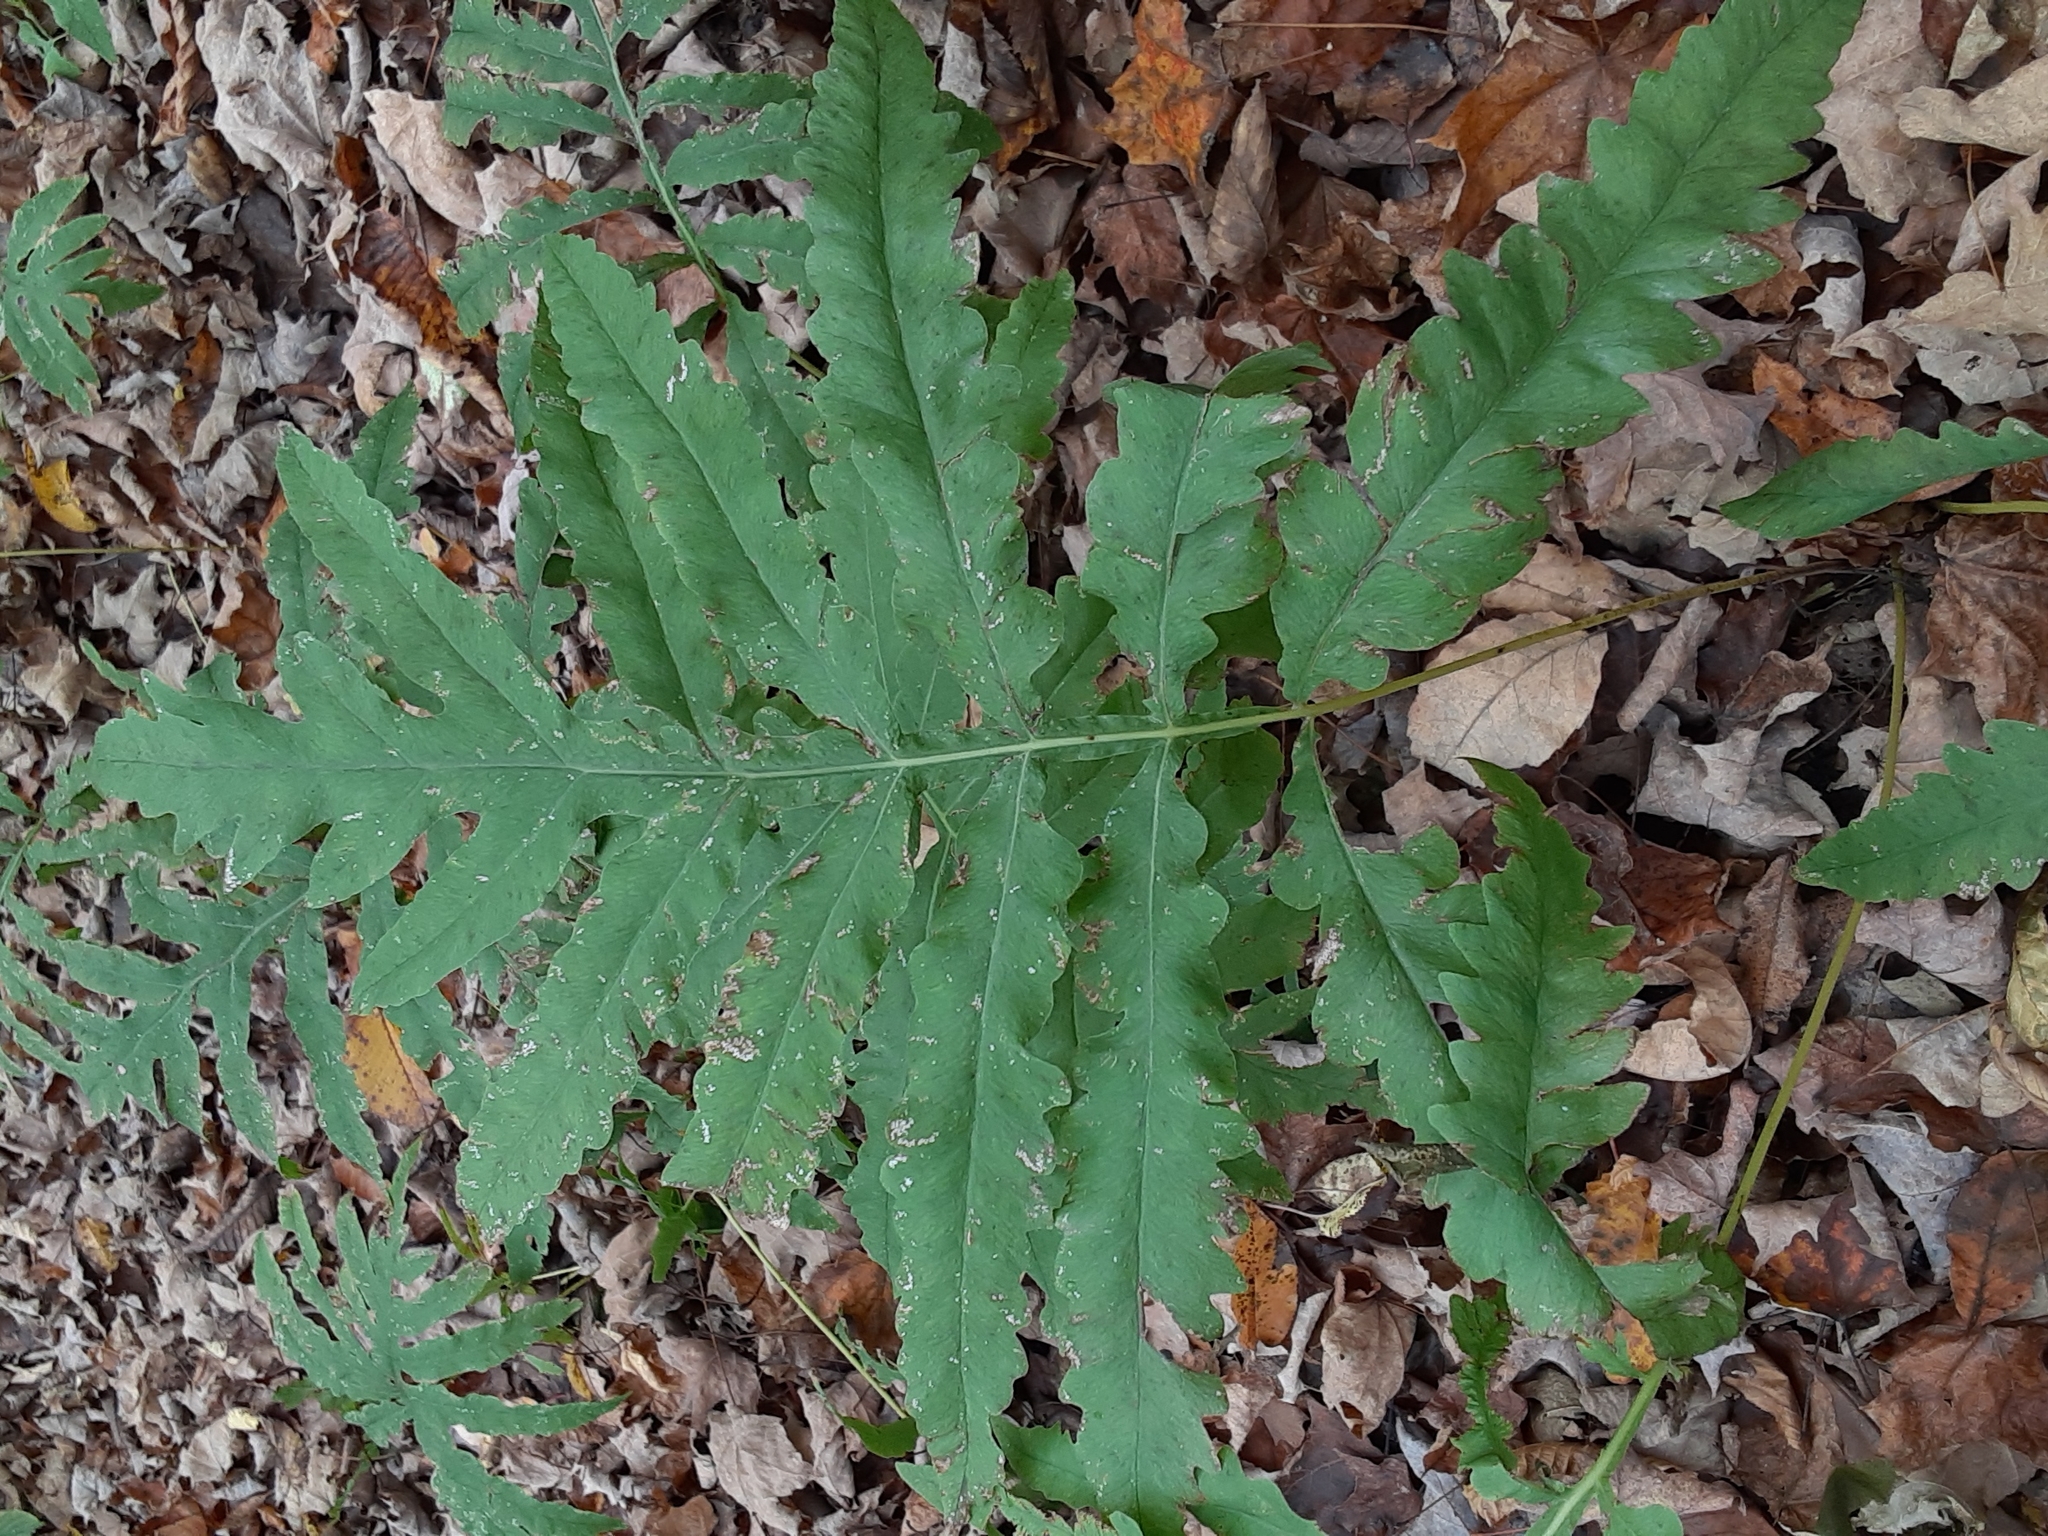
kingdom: Plantae
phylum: Tracheophyta
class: Polypodiopsida
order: Polypodiales
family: Onocleaceae
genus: Onoclea
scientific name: Onoclea sensibilis
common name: Sensitive fern
